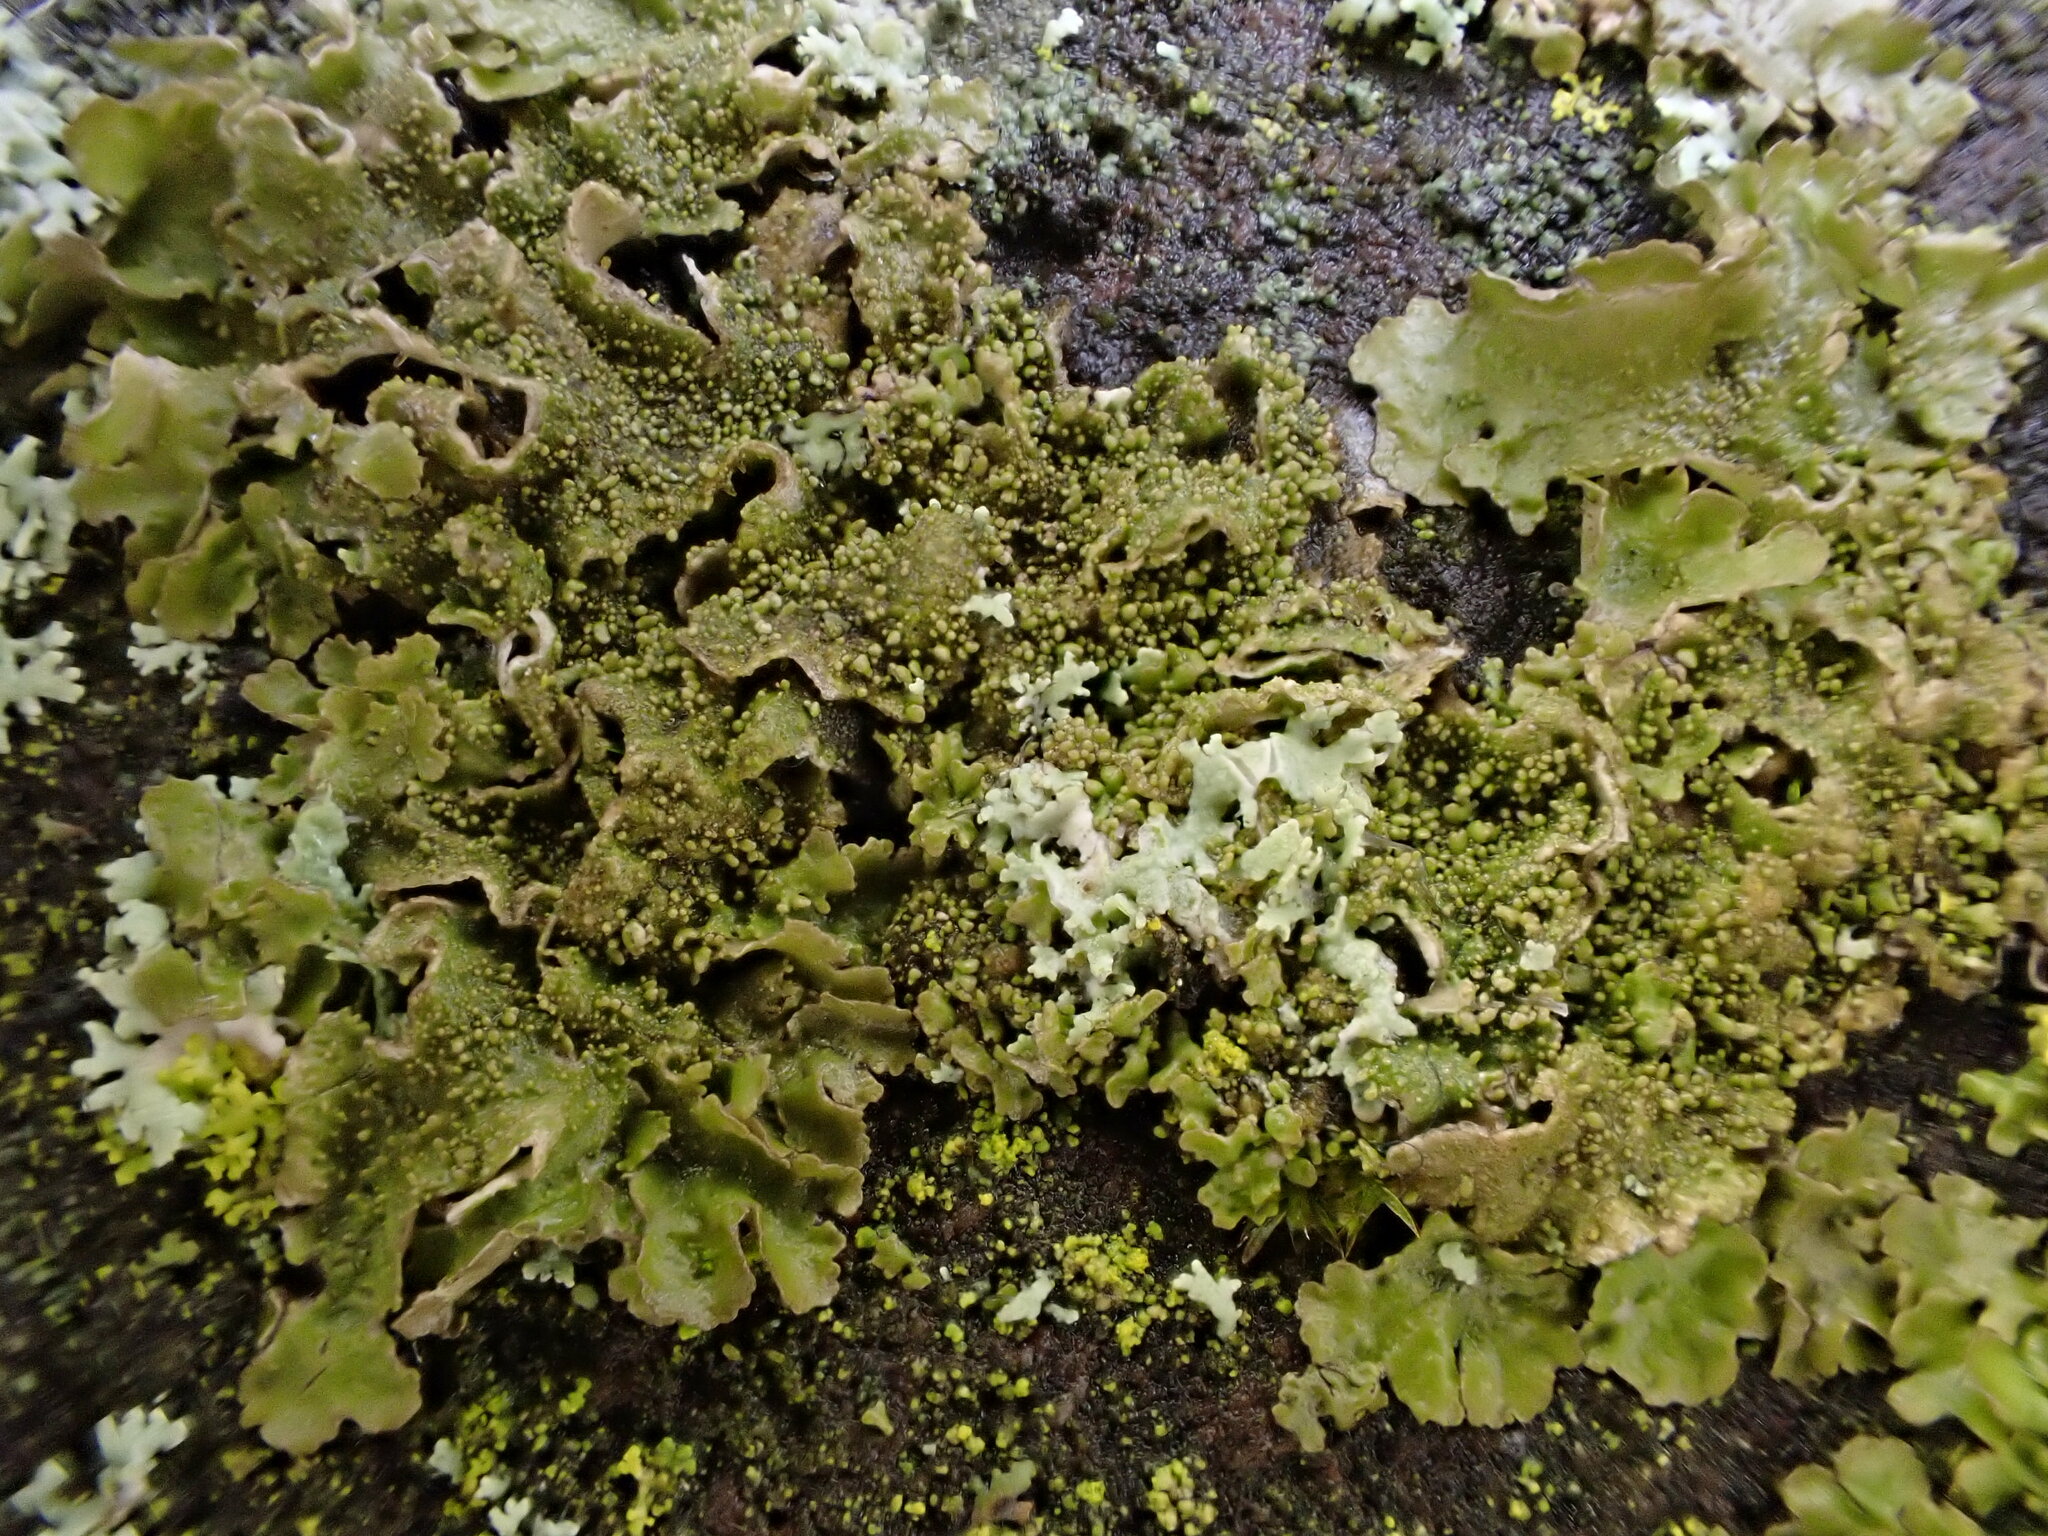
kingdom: Fungi
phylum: Ascomycota
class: Lecanoromycetes
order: Lecanorales
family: Parmeliaceae
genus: Melanohalea
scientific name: Melanohalea exasperatula
